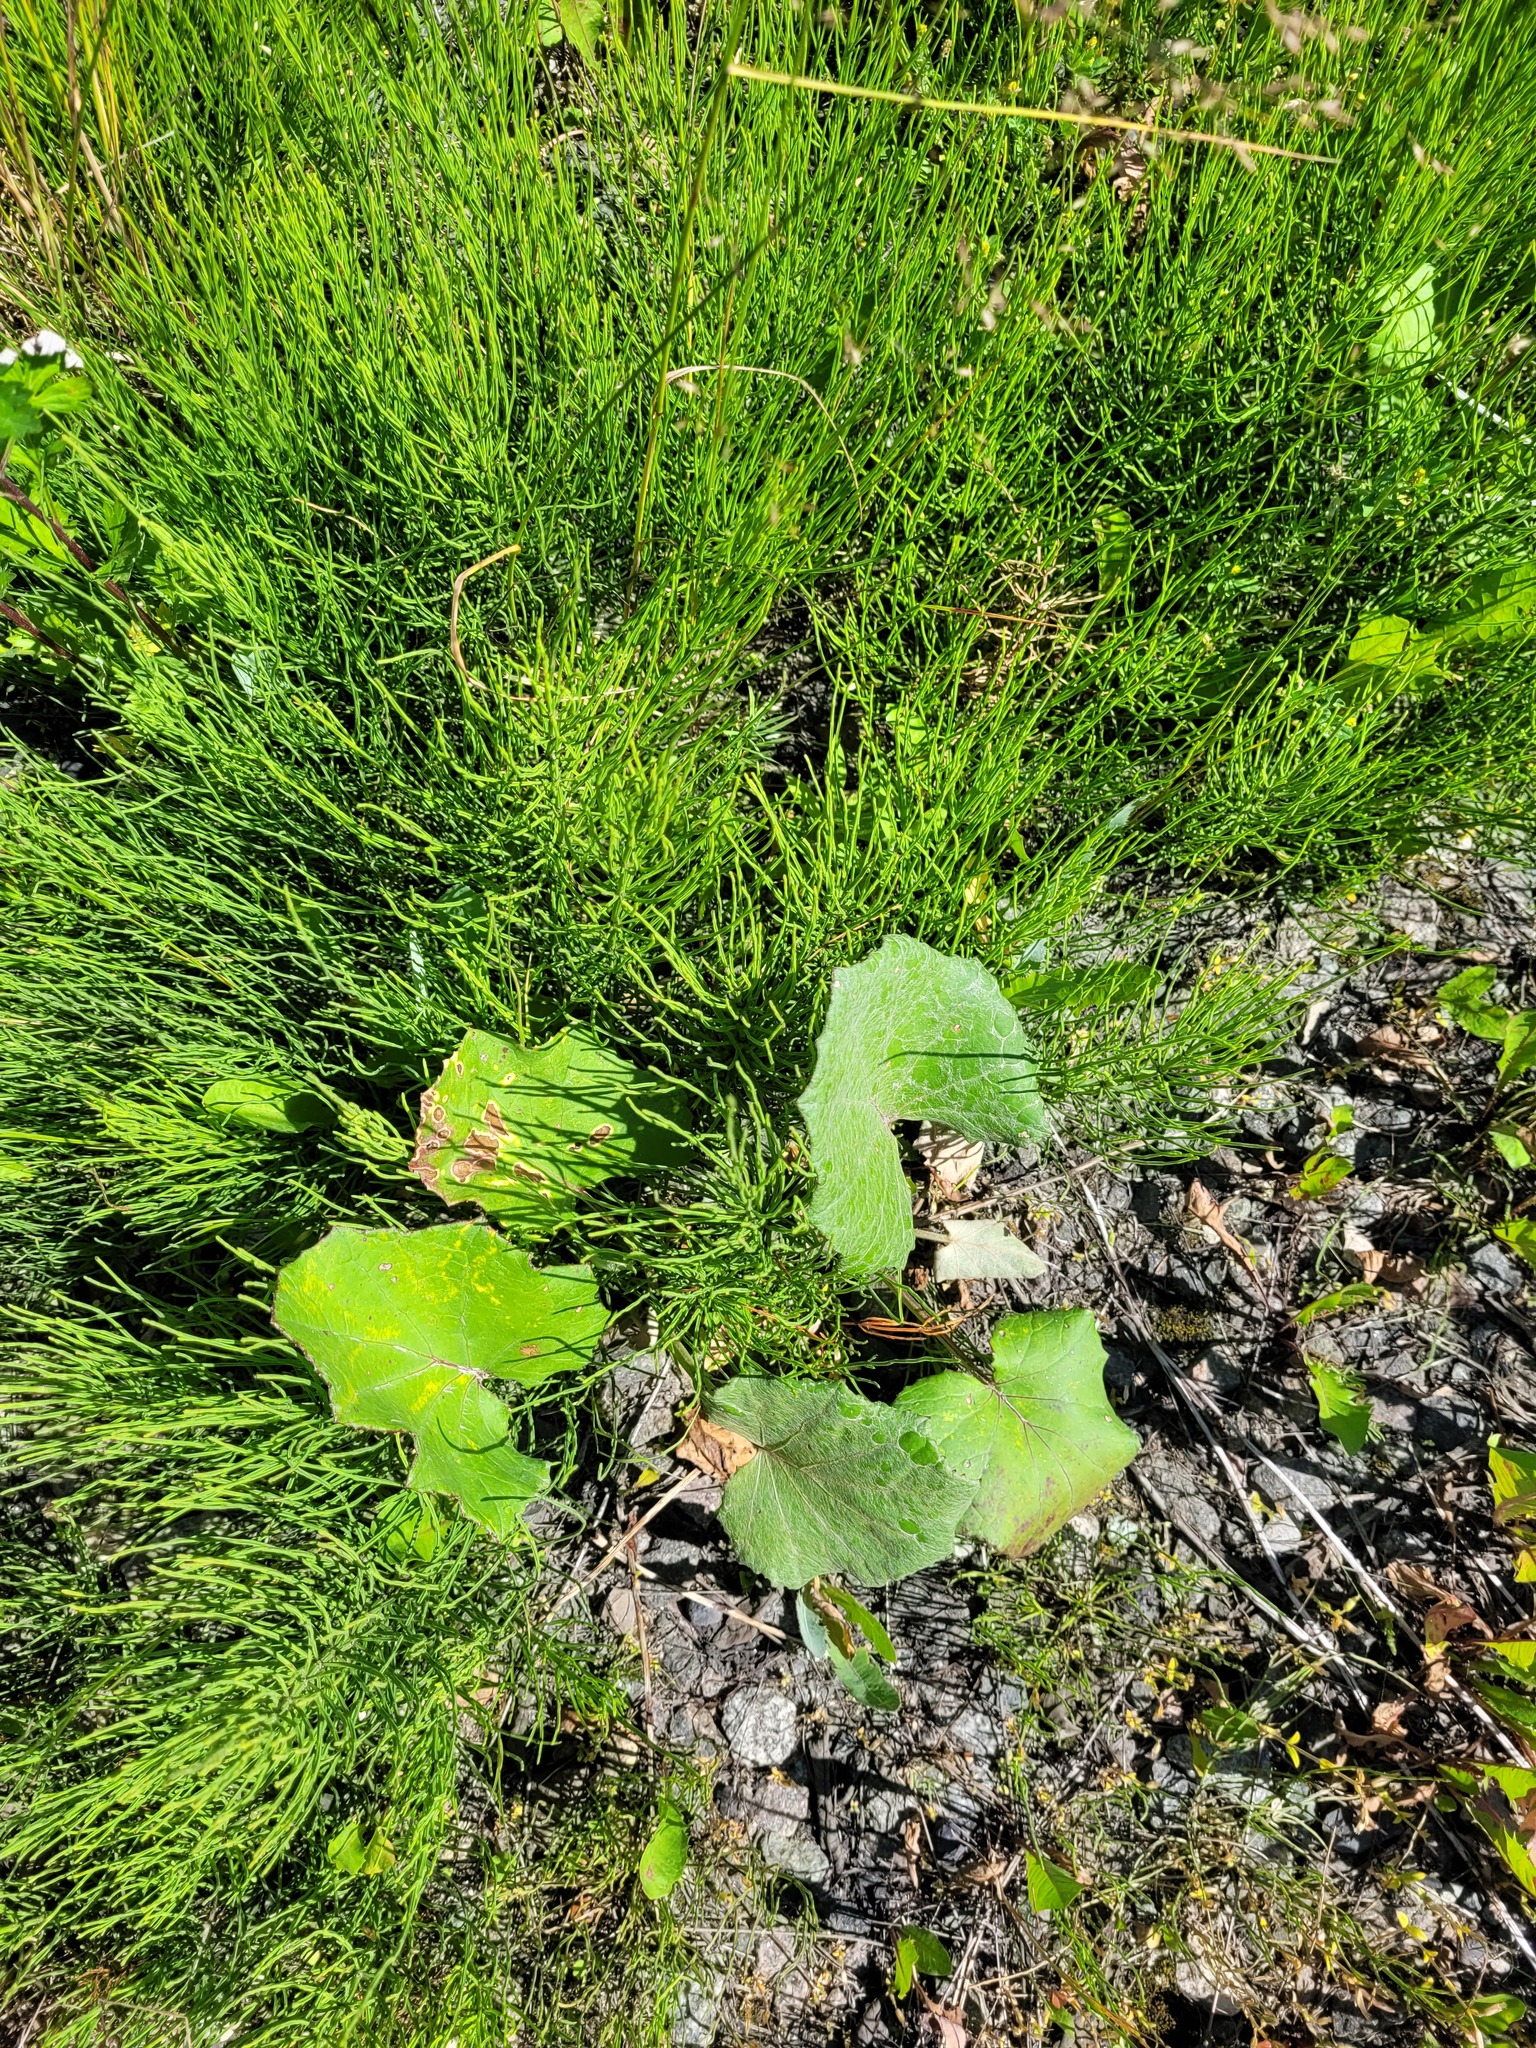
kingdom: Plantae
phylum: Tracheophyta
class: Magnoliopsida
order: Asterales
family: Asteraceae
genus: Tussilago
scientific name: Tussilago farfara
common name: Coltsfoot
